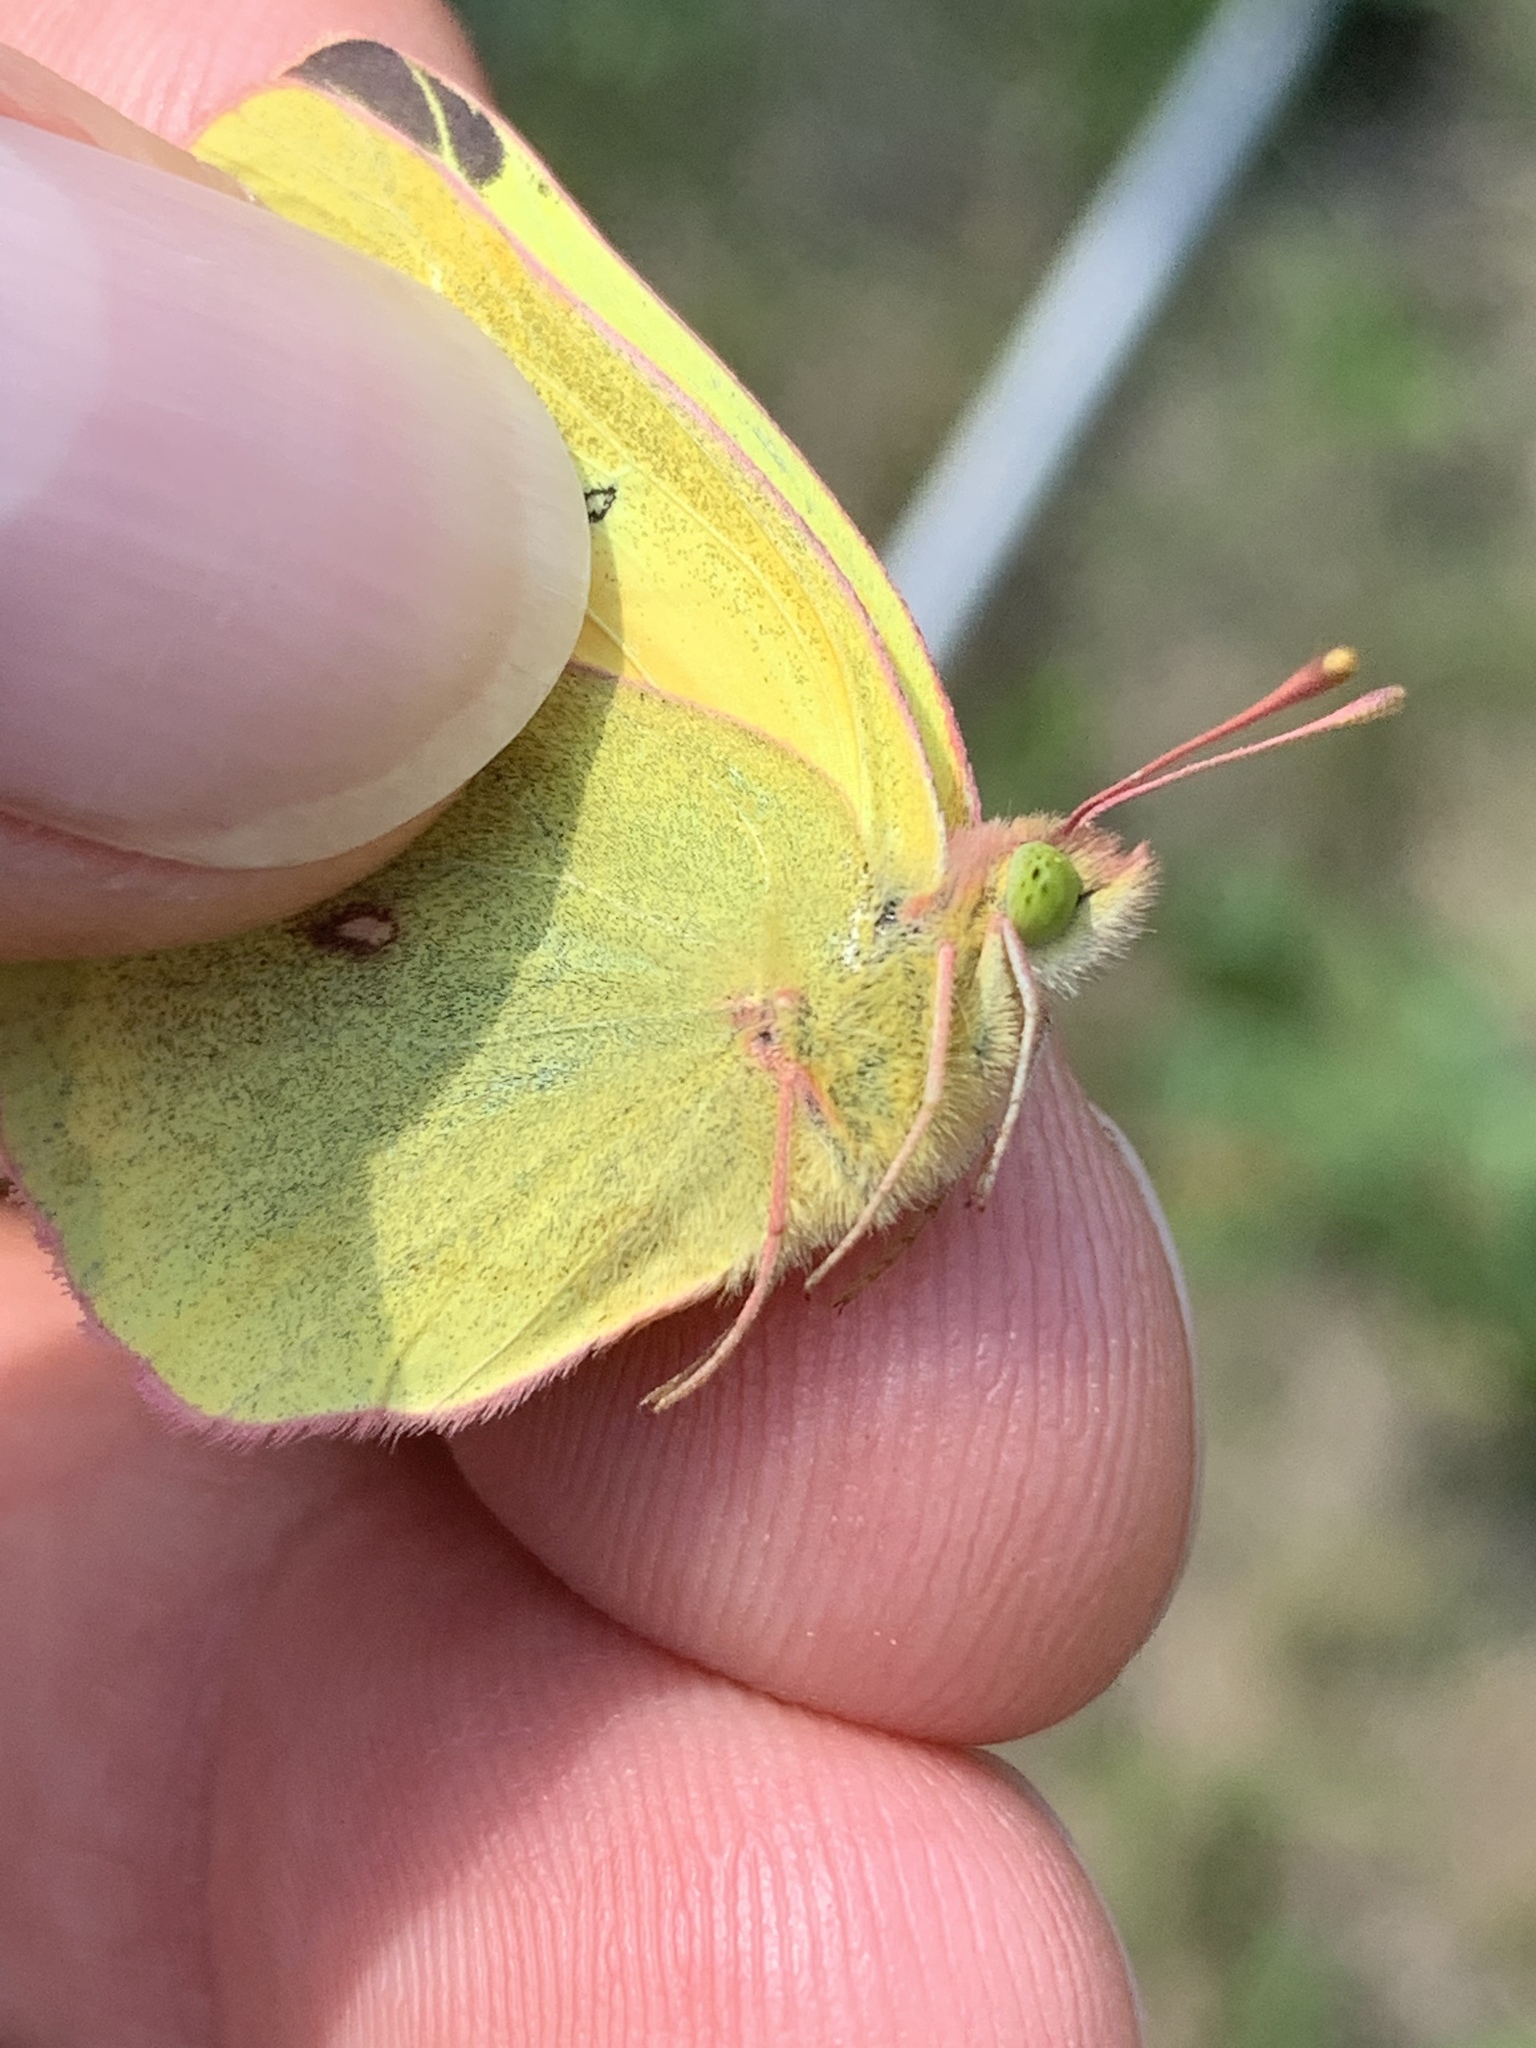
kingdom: Animalia
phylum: Arthropoda
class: Insecta
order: Lepidoptera
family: Pieridae
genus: Colias
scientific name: Colias christina
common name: Christina sulphur
